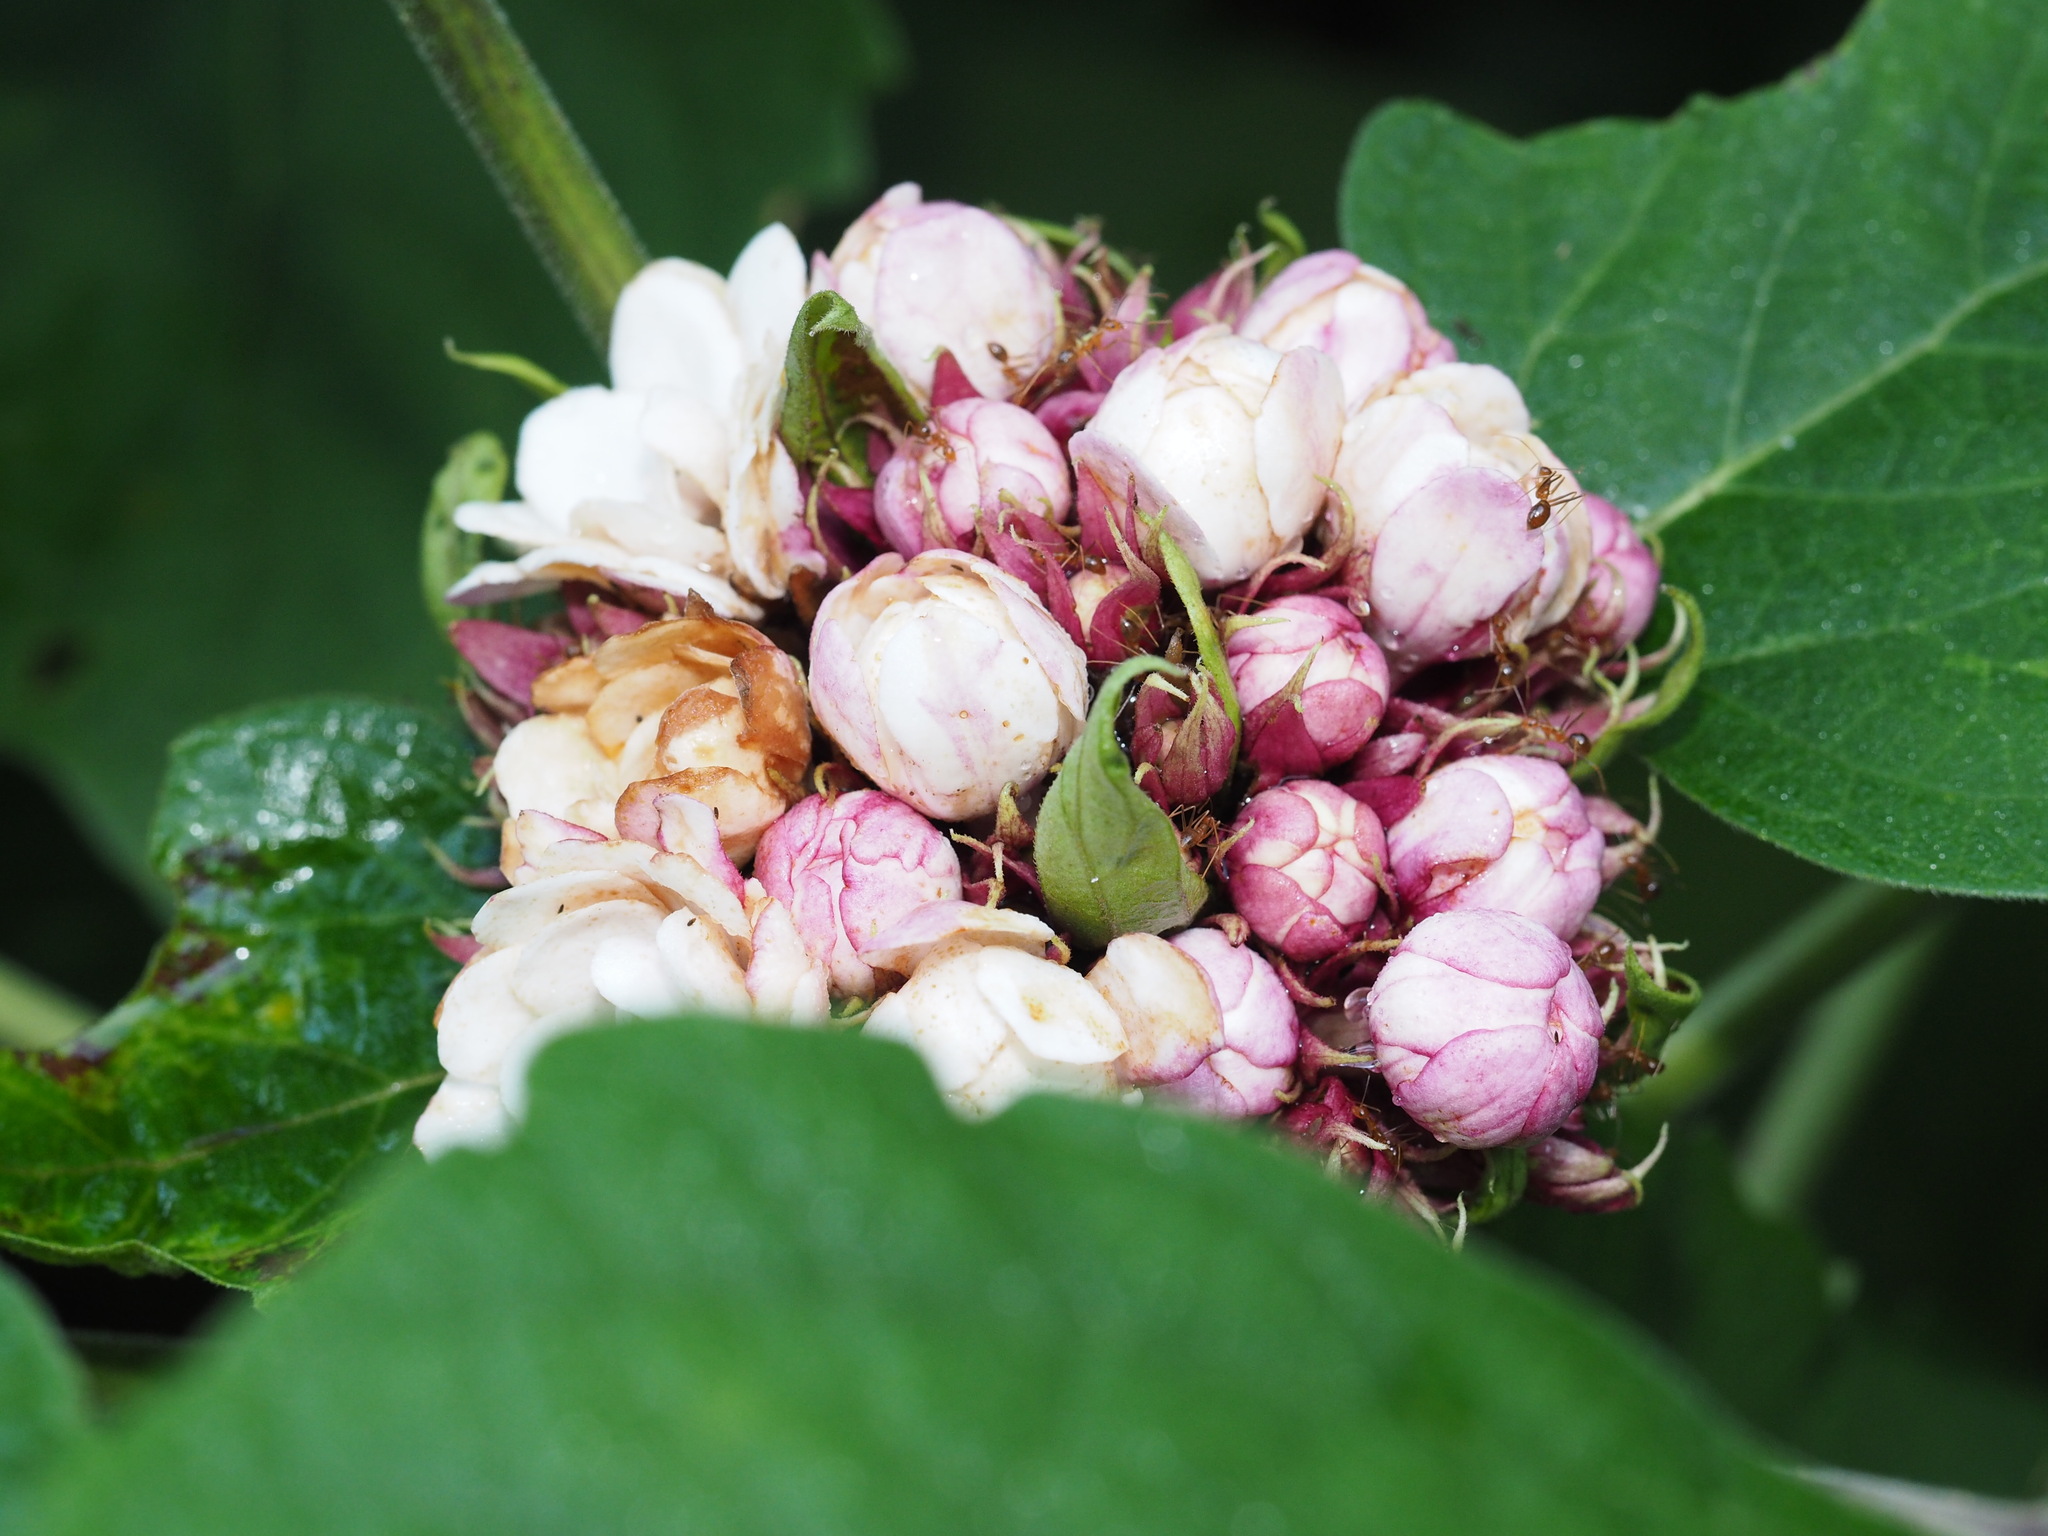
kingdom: Plantae
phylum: Tracheophyta
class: Magnoliopsida
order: Lamiales
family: Lamiaceae
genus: Clerodendrum
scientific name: Clerodendrum chinense
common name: Stickbush
